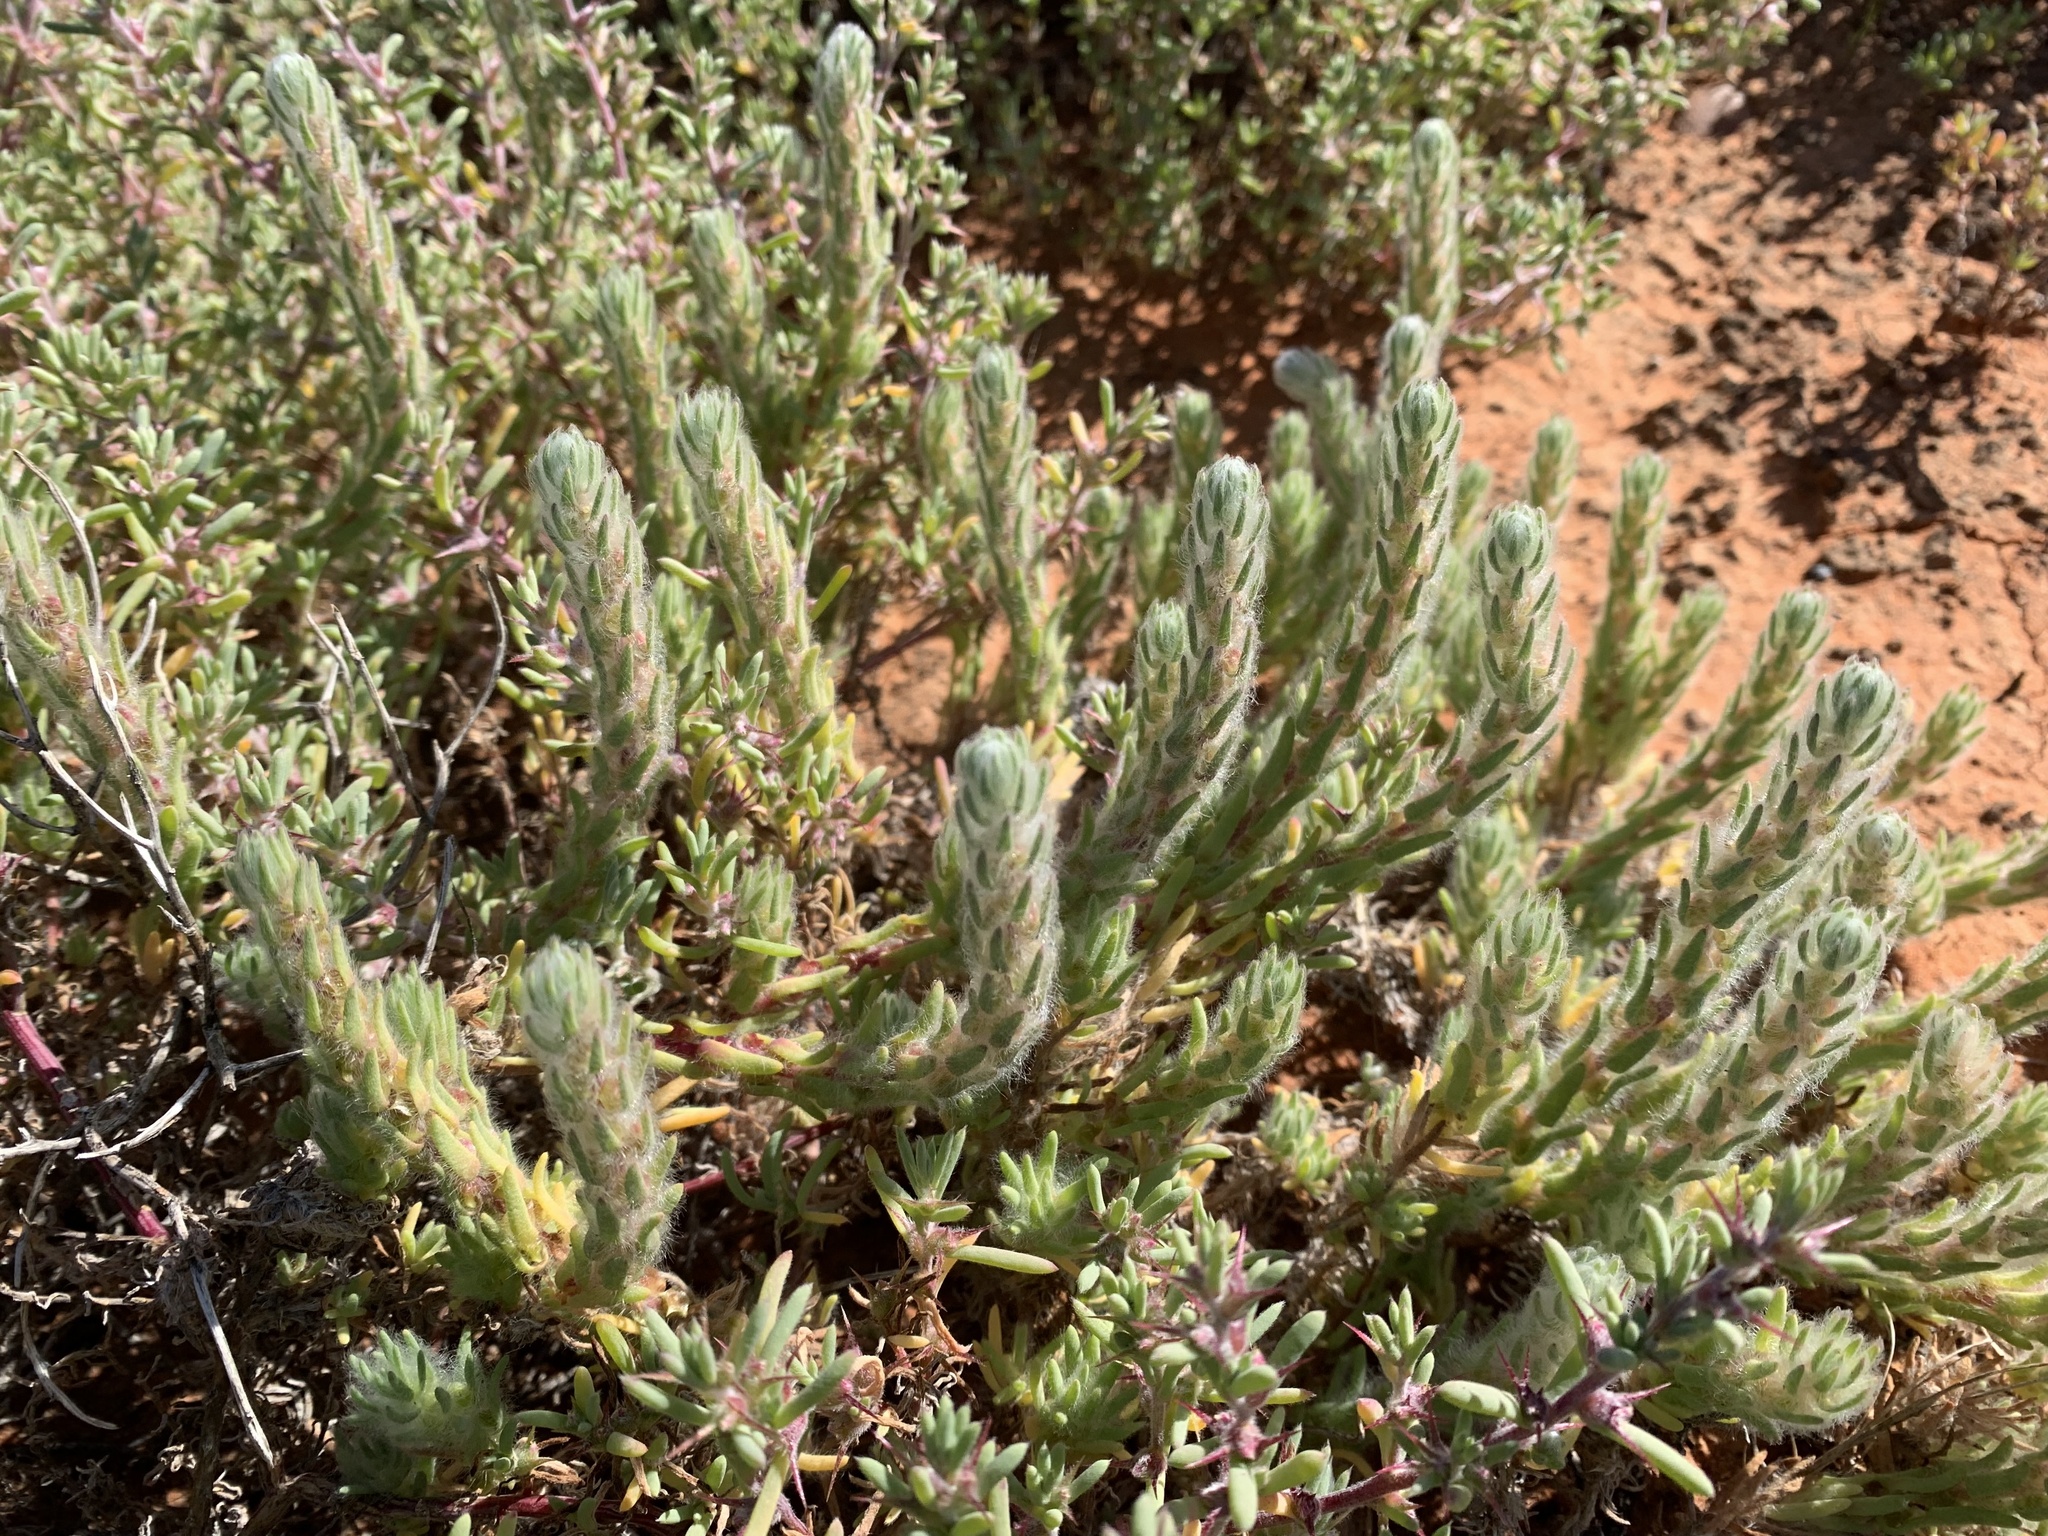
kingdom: Plantae
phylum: Tracheophyta
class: Magnoliopsida
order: Caryophyllales
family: Amaranthaceae
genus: Sclerolaena
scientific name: Sclerolaena brachyptera
